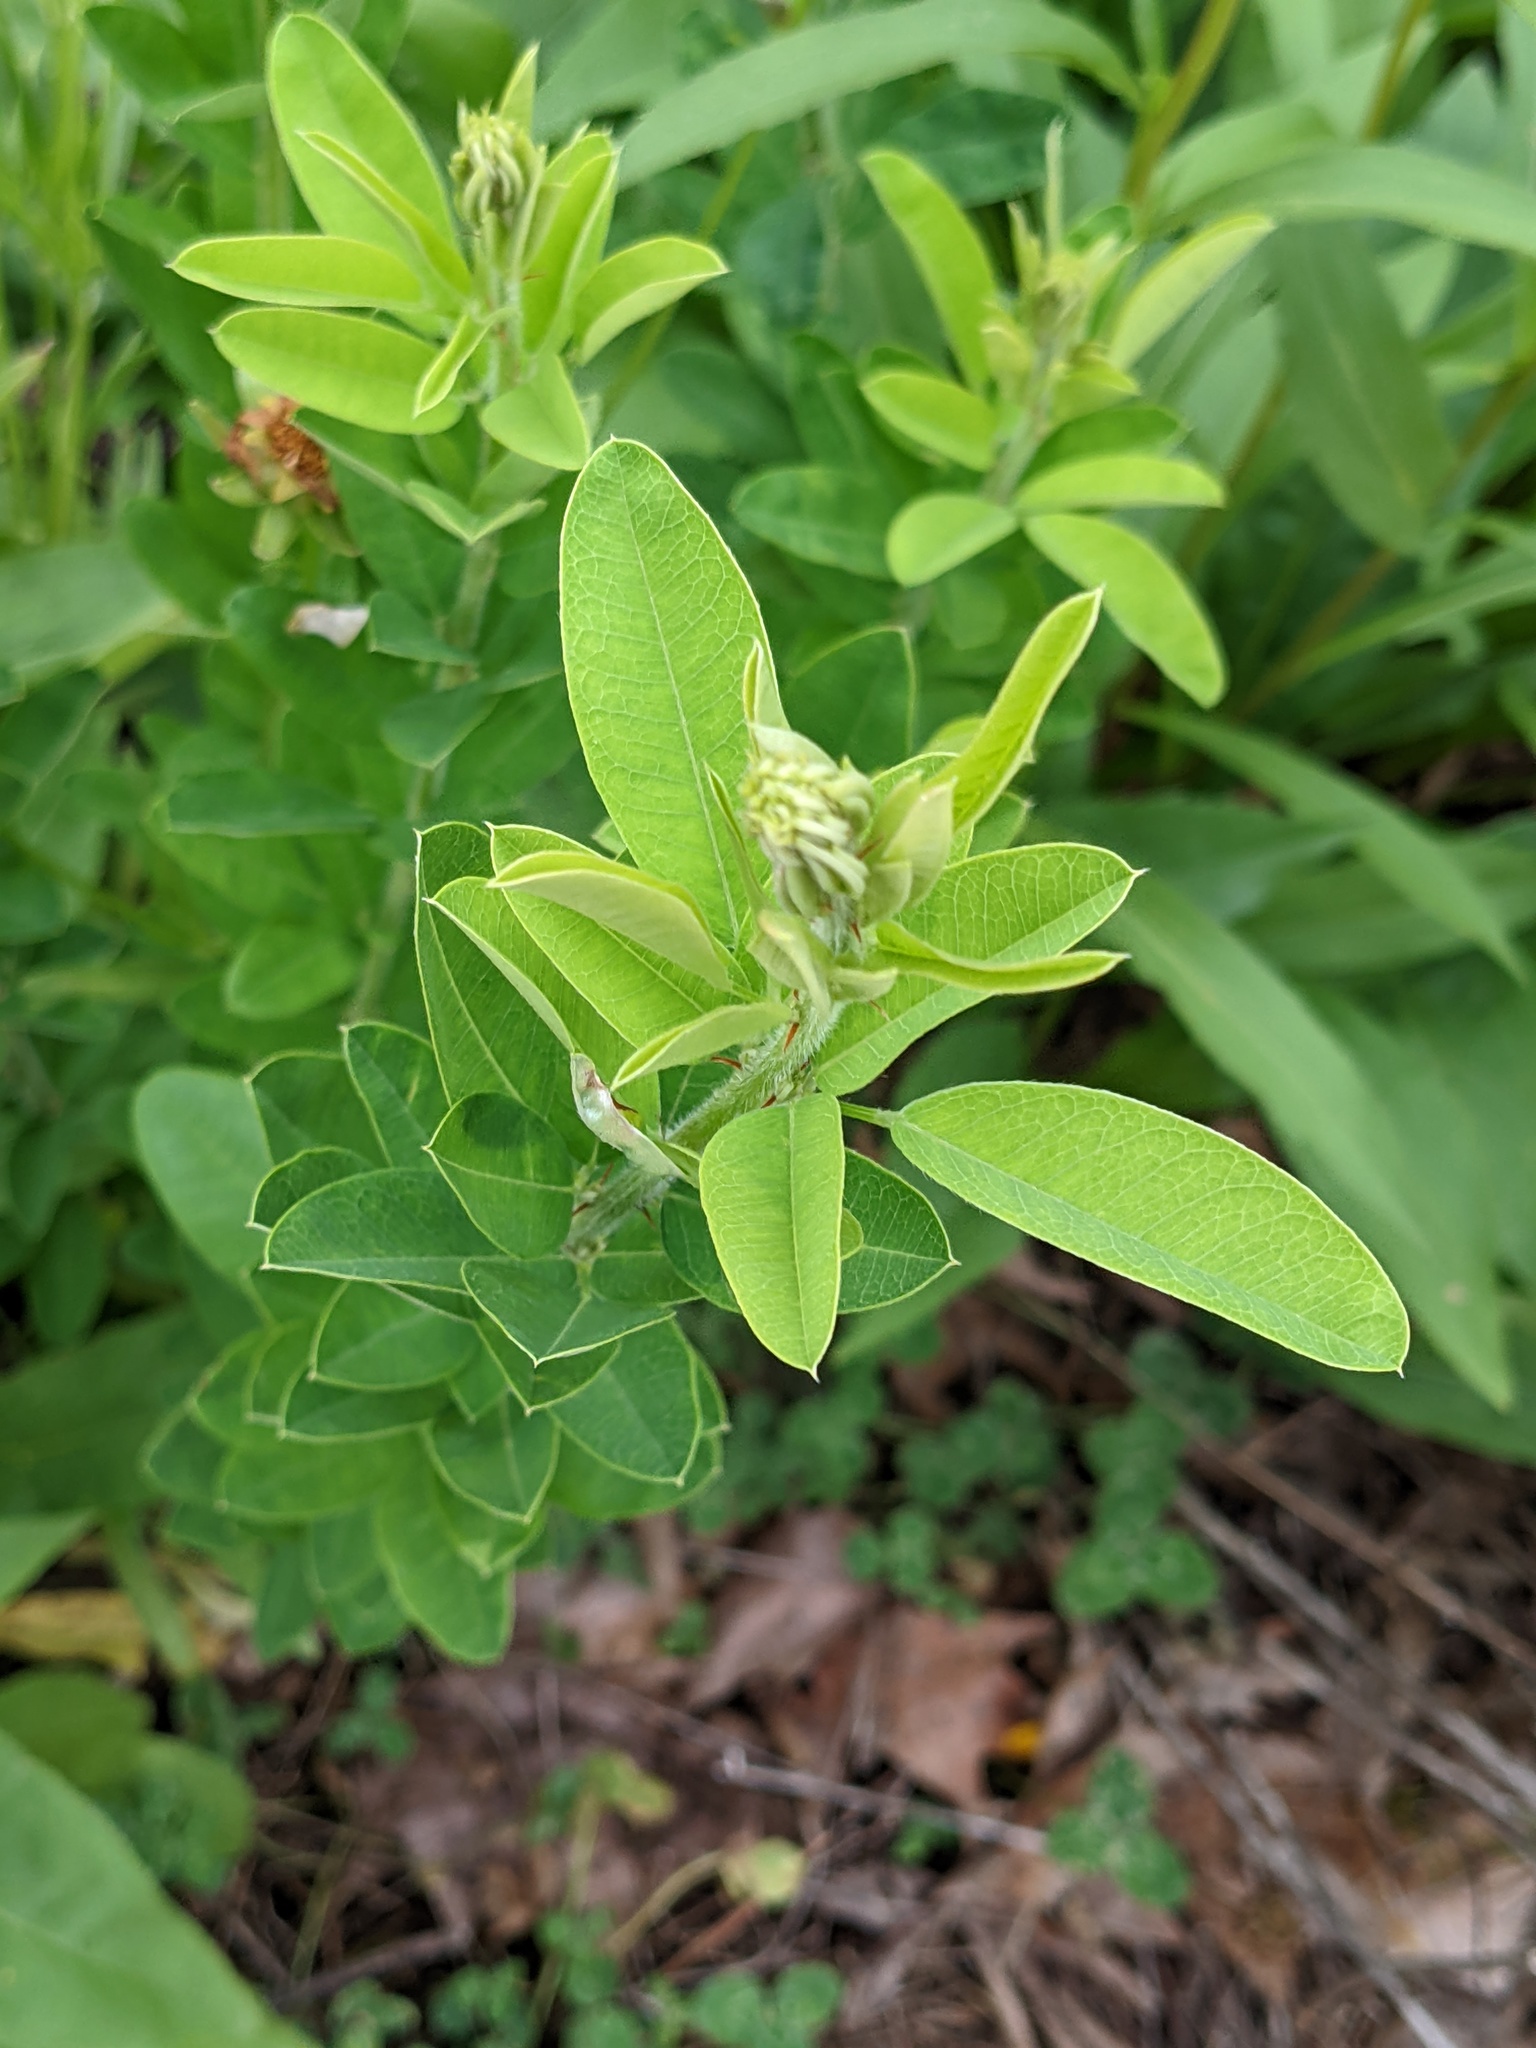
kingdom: Plantae
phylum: Tracheophyta
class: Magnoliopsida
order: Fabales
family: Fabaceae
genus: Lespedeza
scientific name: Lespedeza capitata
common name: Dusty clover
